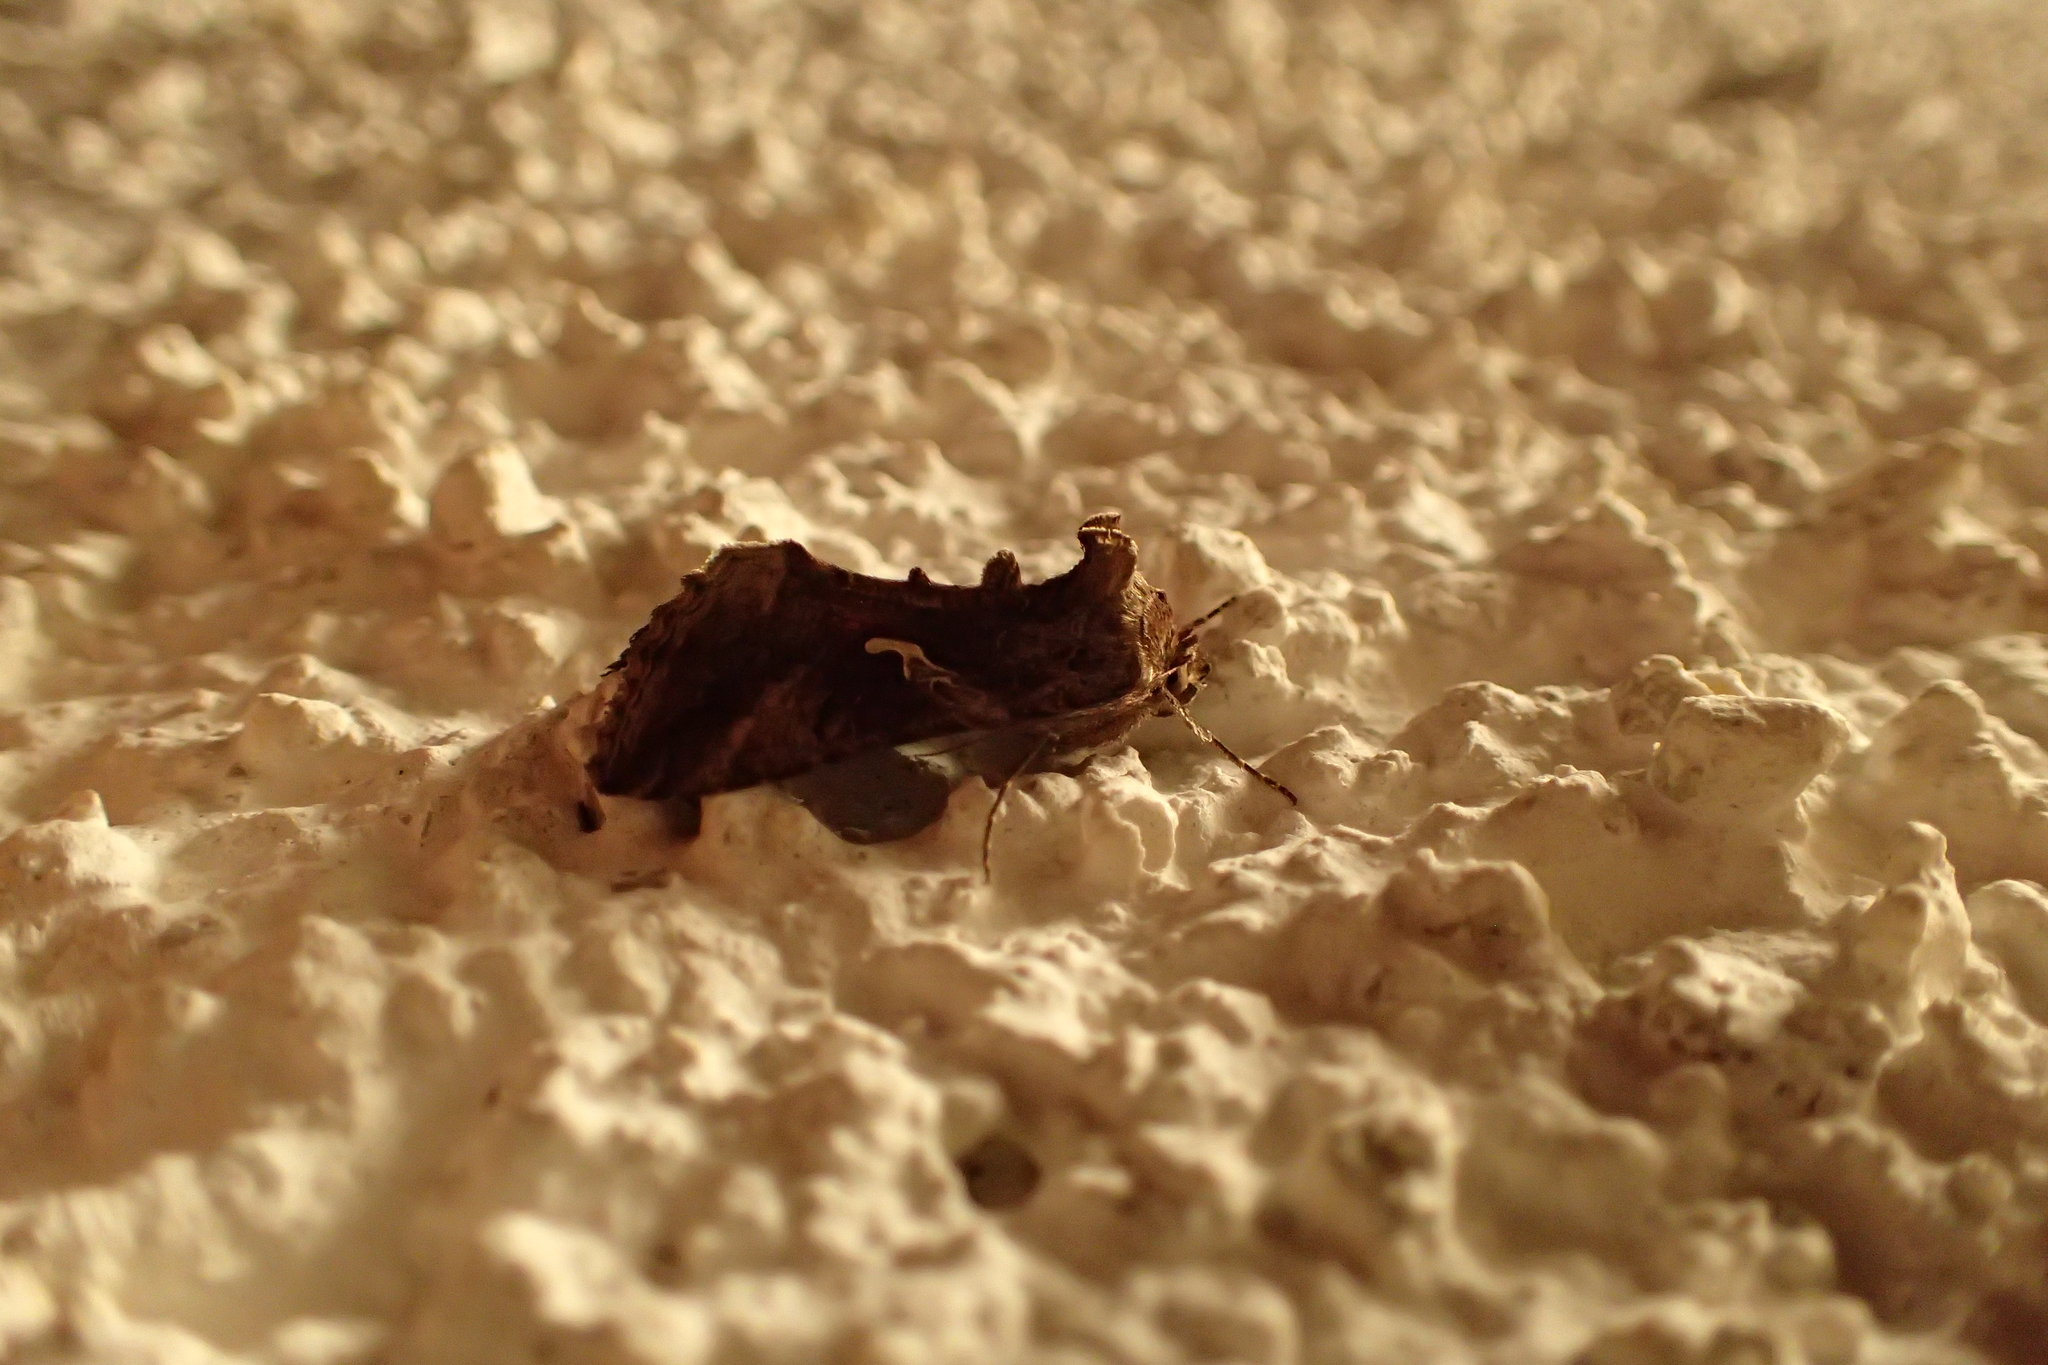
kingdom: Animalia
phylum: Arthropoda
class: Insecta
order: Lepidoptera
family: Noctuidae
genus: Autographa
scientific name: Autographa gamma
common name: Silver y
